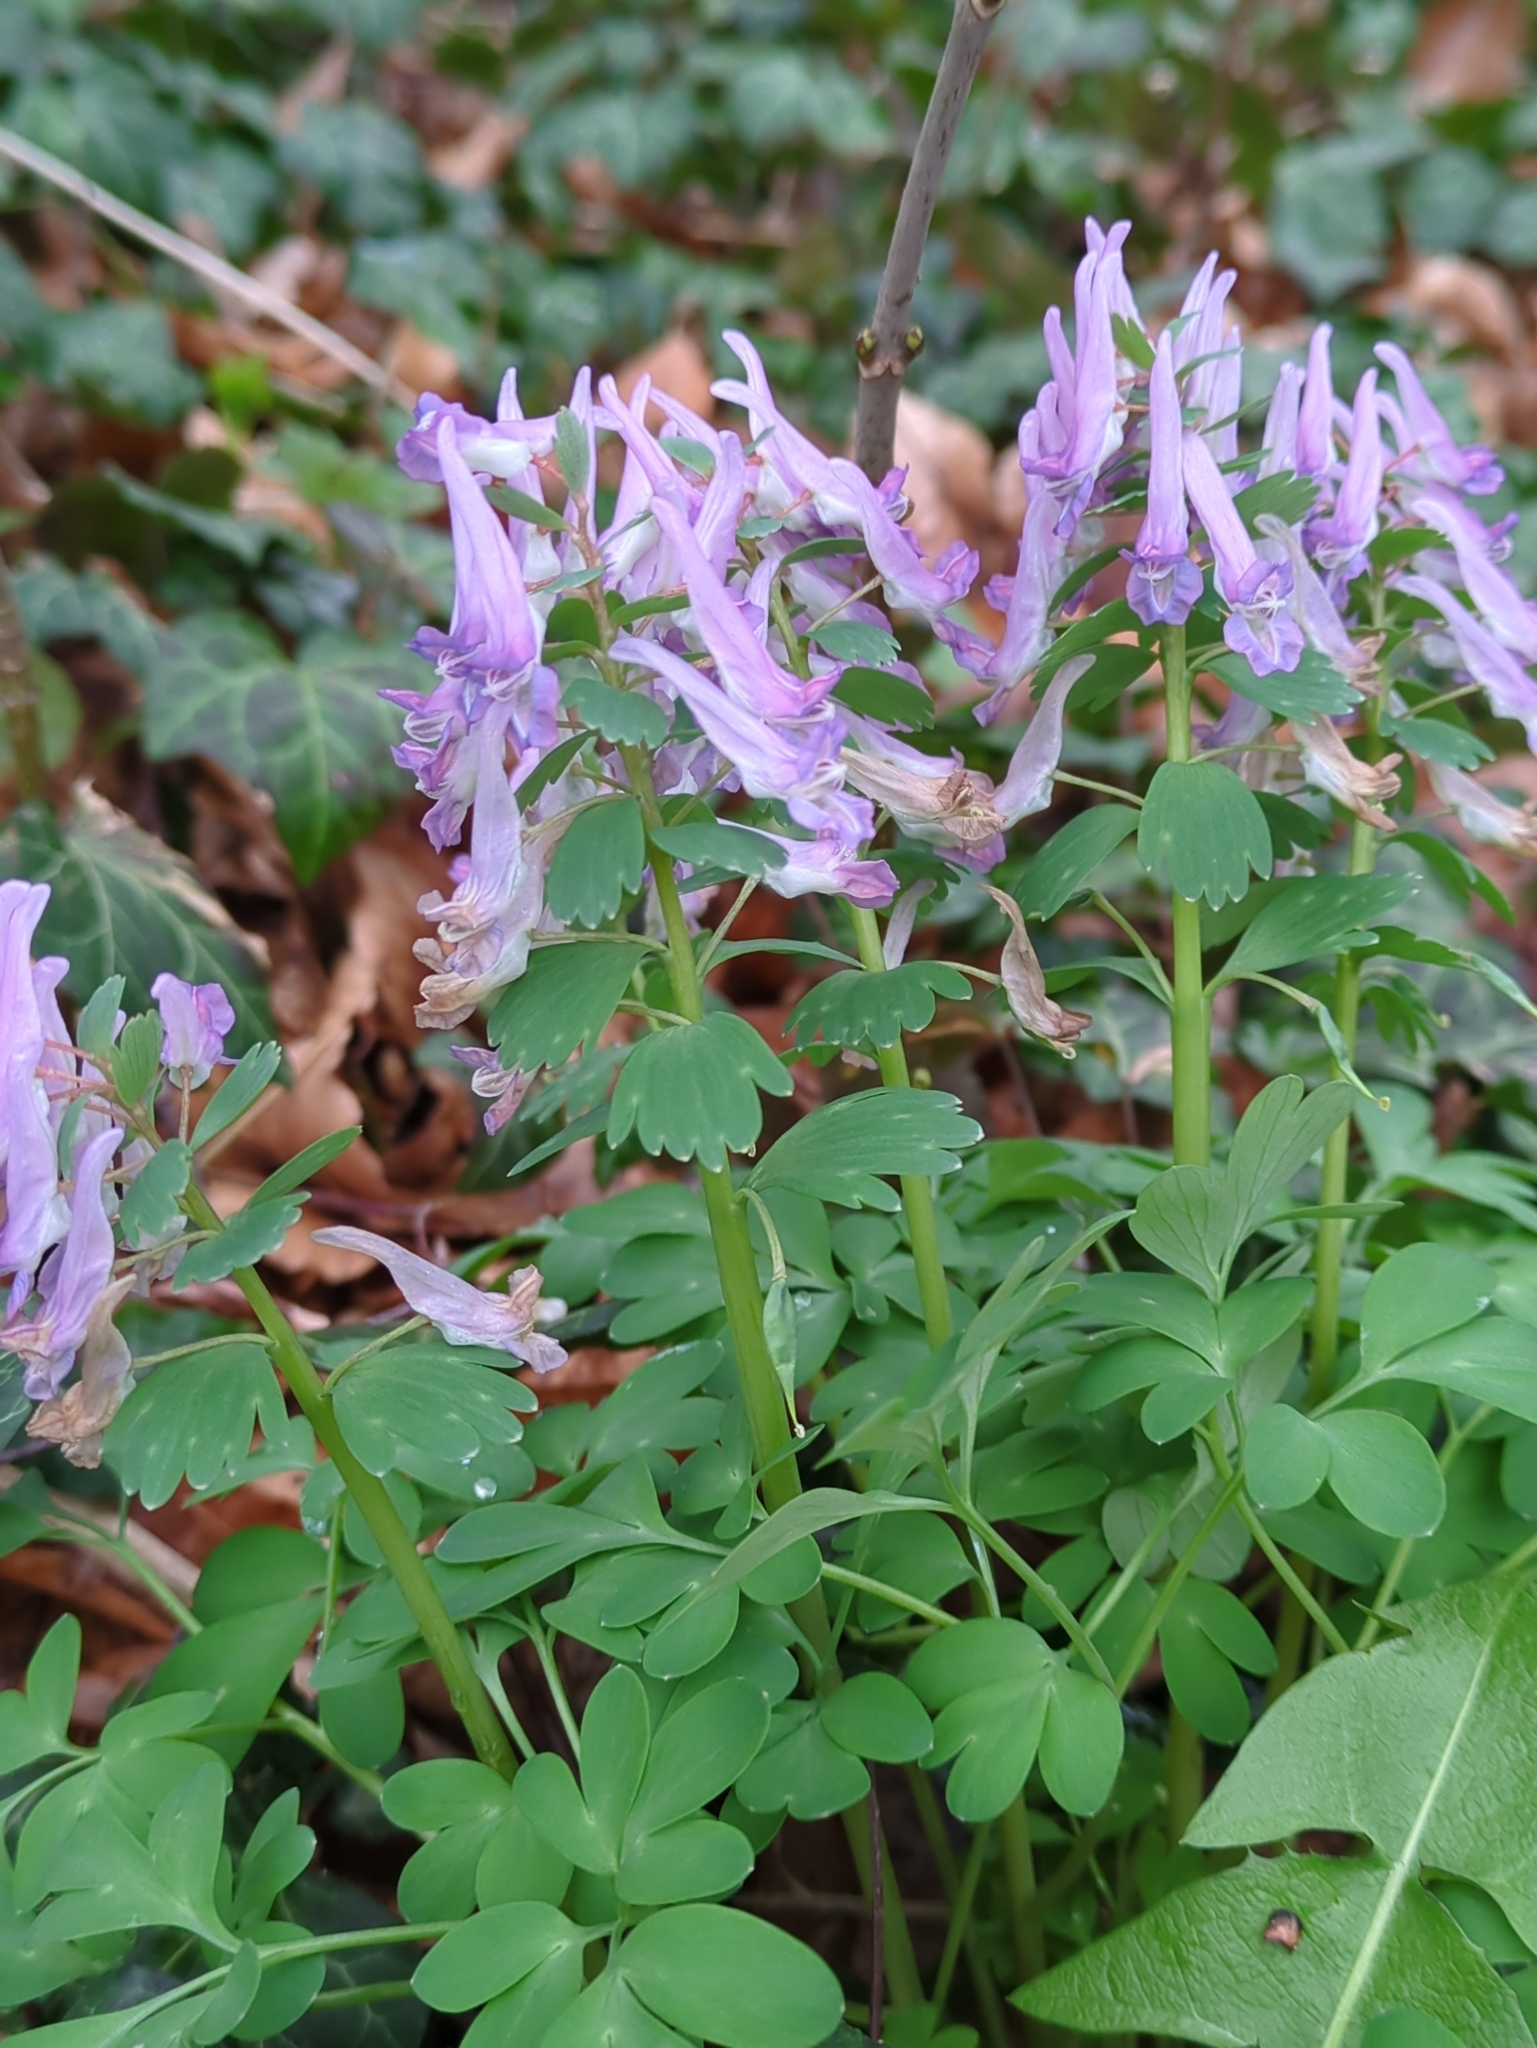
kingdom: Plantae
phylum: Tracheophyta
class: Magnoliopsida
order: Ranunculales
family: Papaveraceae
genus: Corydalis
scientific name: Corydalis solida
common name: Bird-in-a-bush
